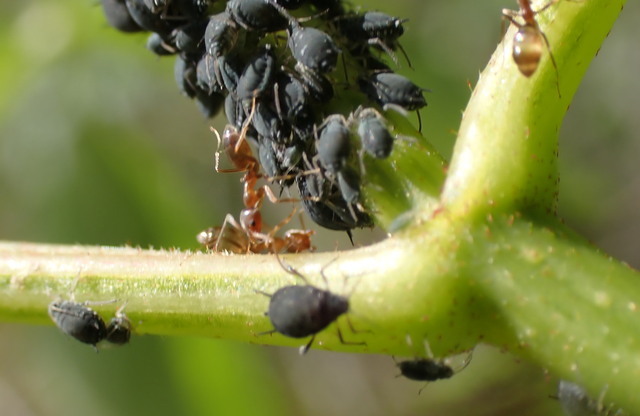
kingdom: Animalia
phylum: Arthropoda
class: Insecta
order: Hymenoptera
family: Formicidae
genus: Linepithema
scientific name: Linepithema humile
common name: Argentine ant
